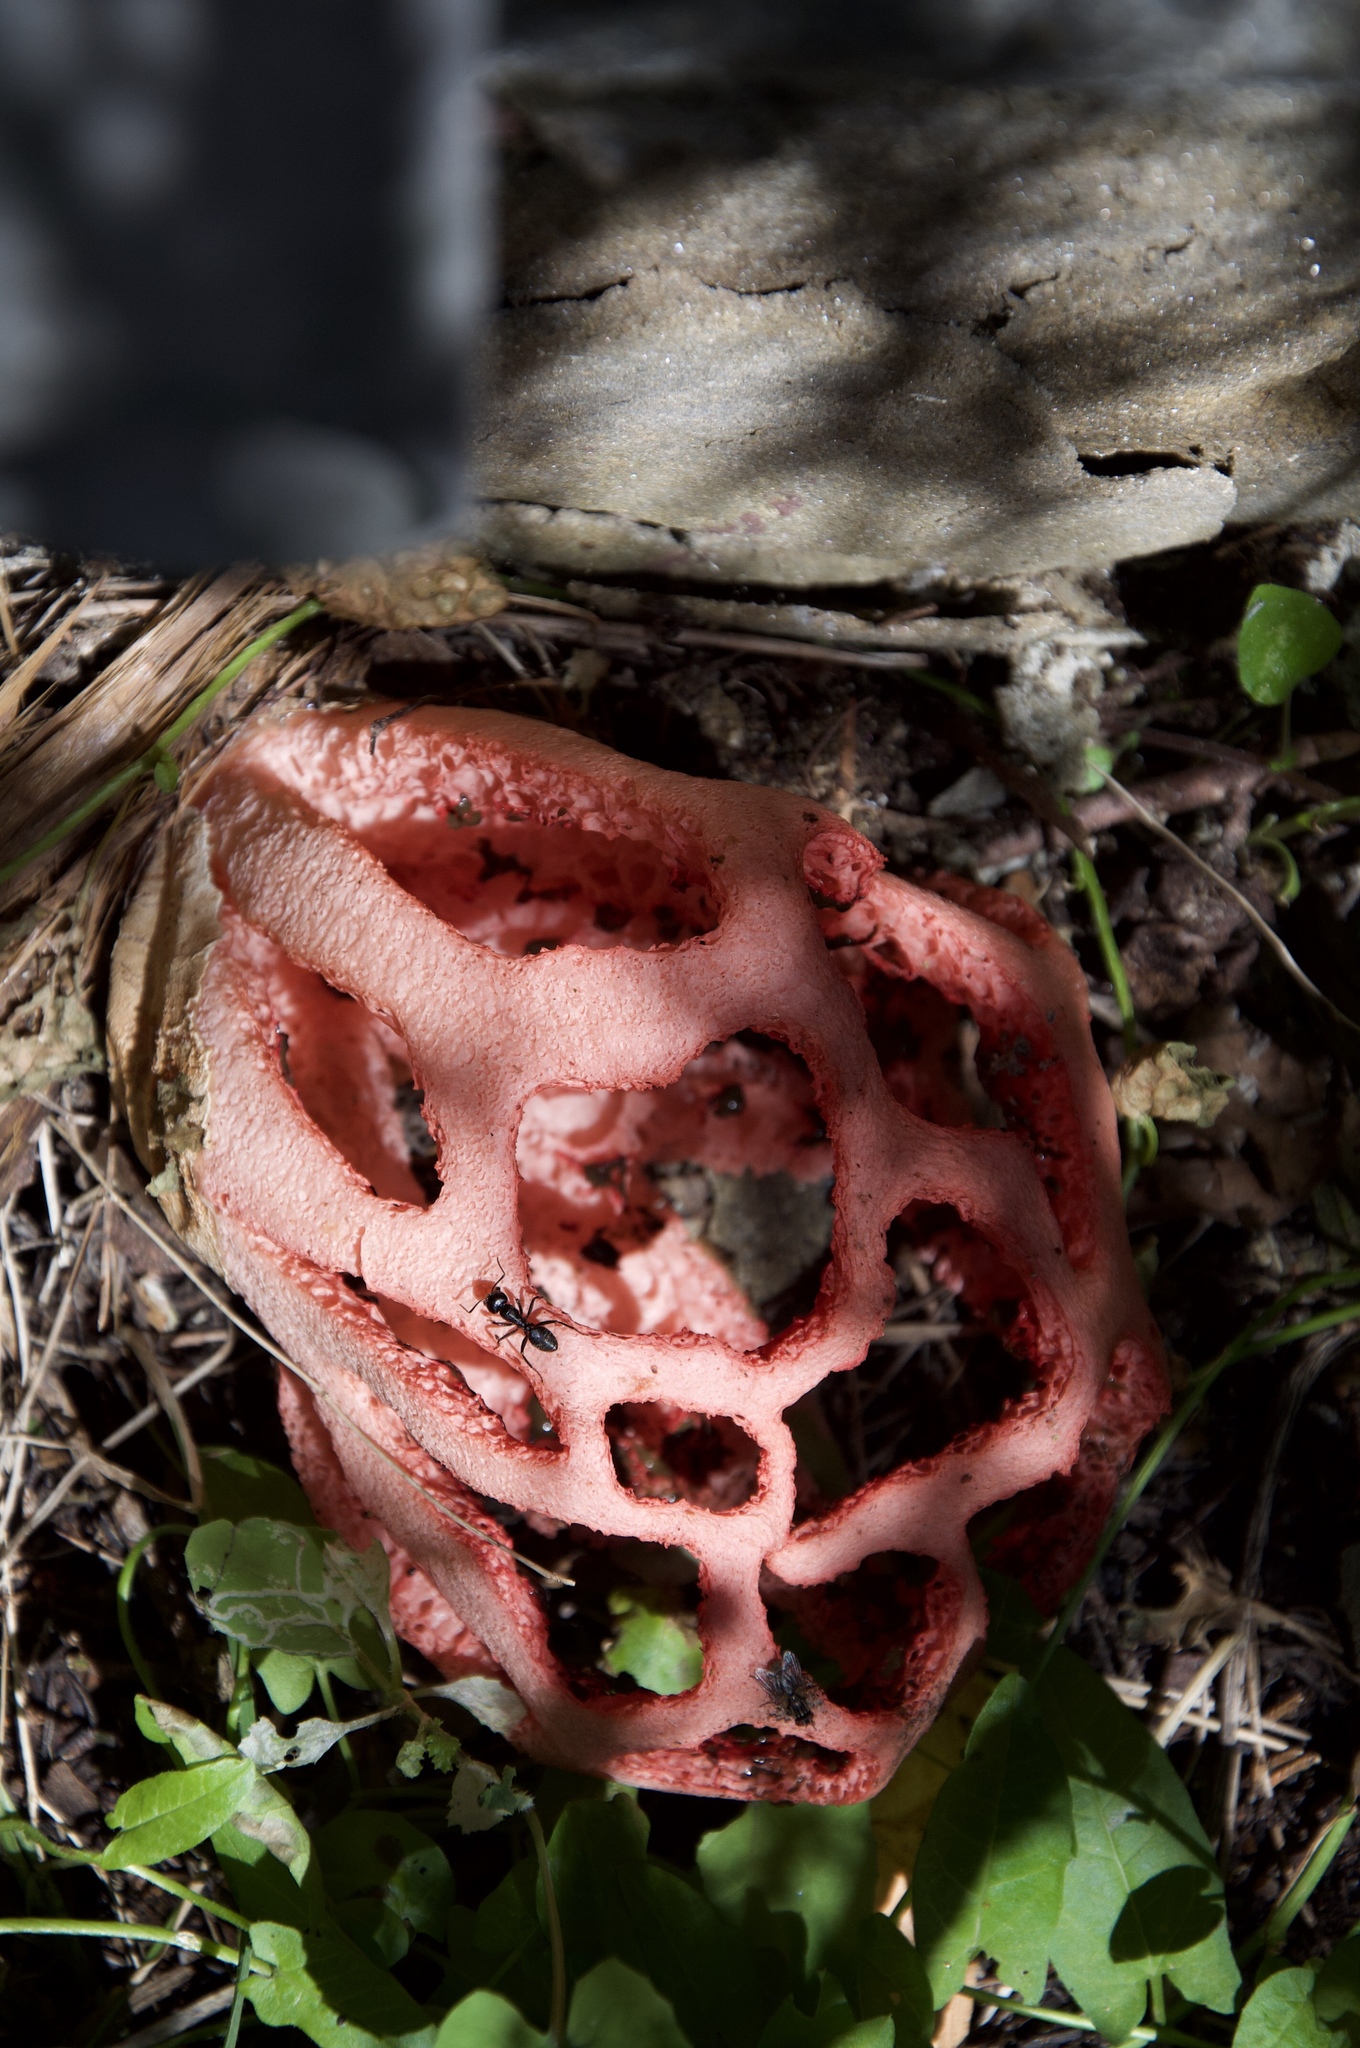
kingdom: Fungi
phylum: Basidiomycota
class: Agaricomycetes
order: Phallales
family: Phallaceae
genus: Clathrus
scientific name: Clathrus ruber
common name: Red cage
